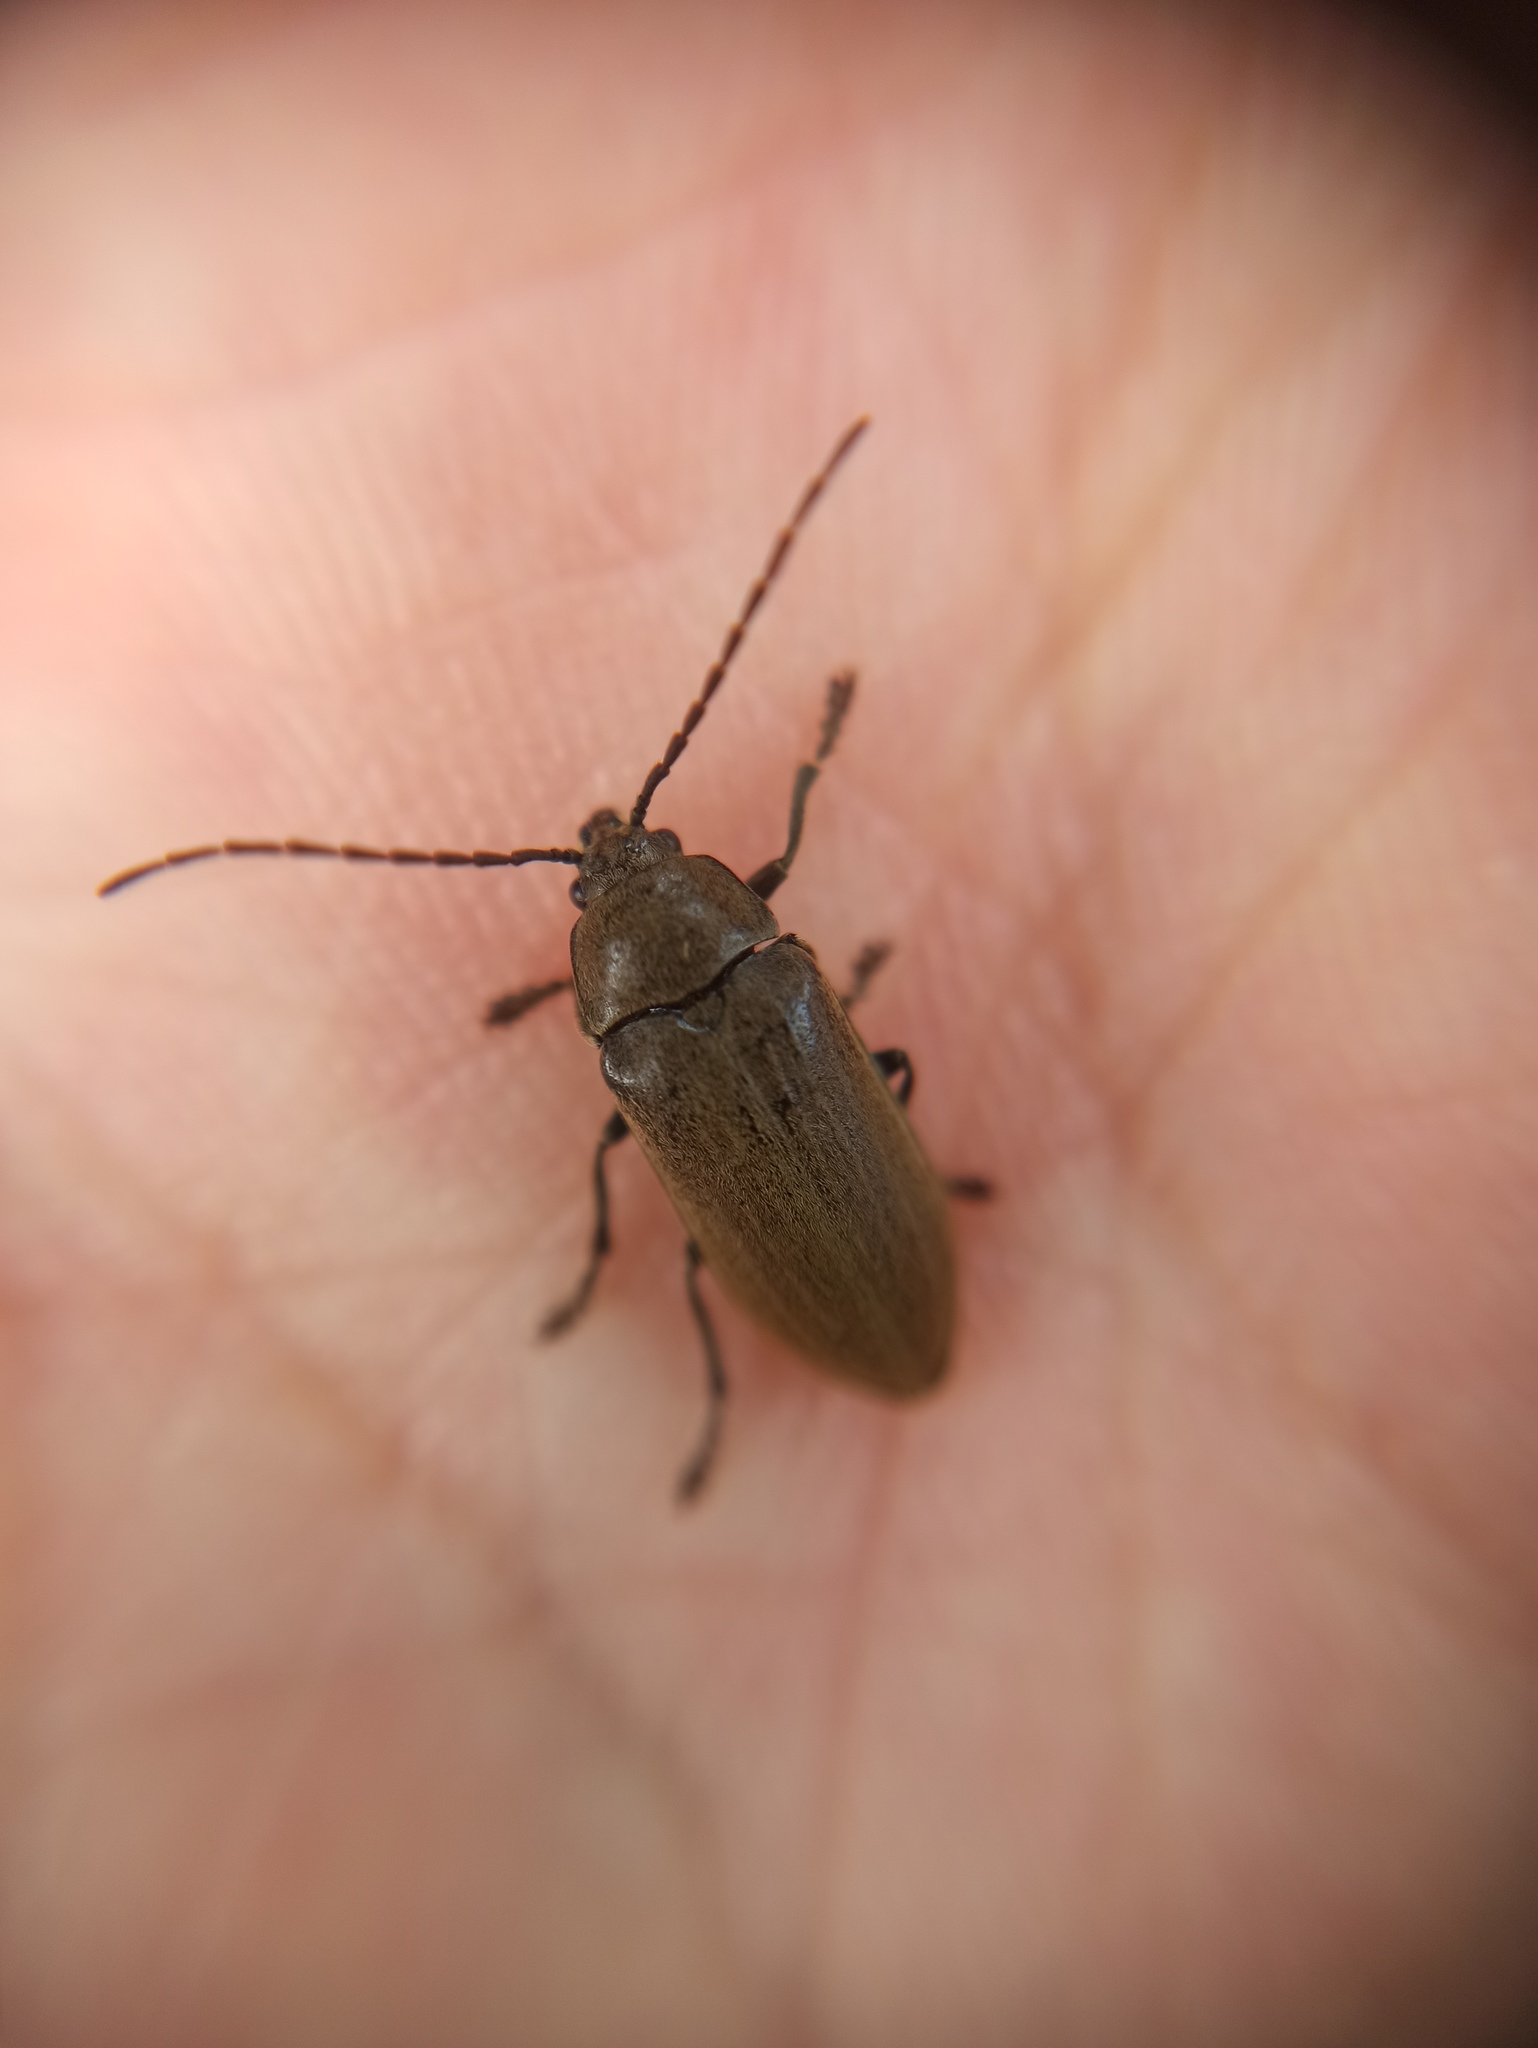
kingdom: Animalia
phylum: Arthropoda
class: Insecta
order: Coleoptera
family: Dascillidae
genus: Dascillus
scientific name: Dascillus cervinus
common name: Orchid beetle
